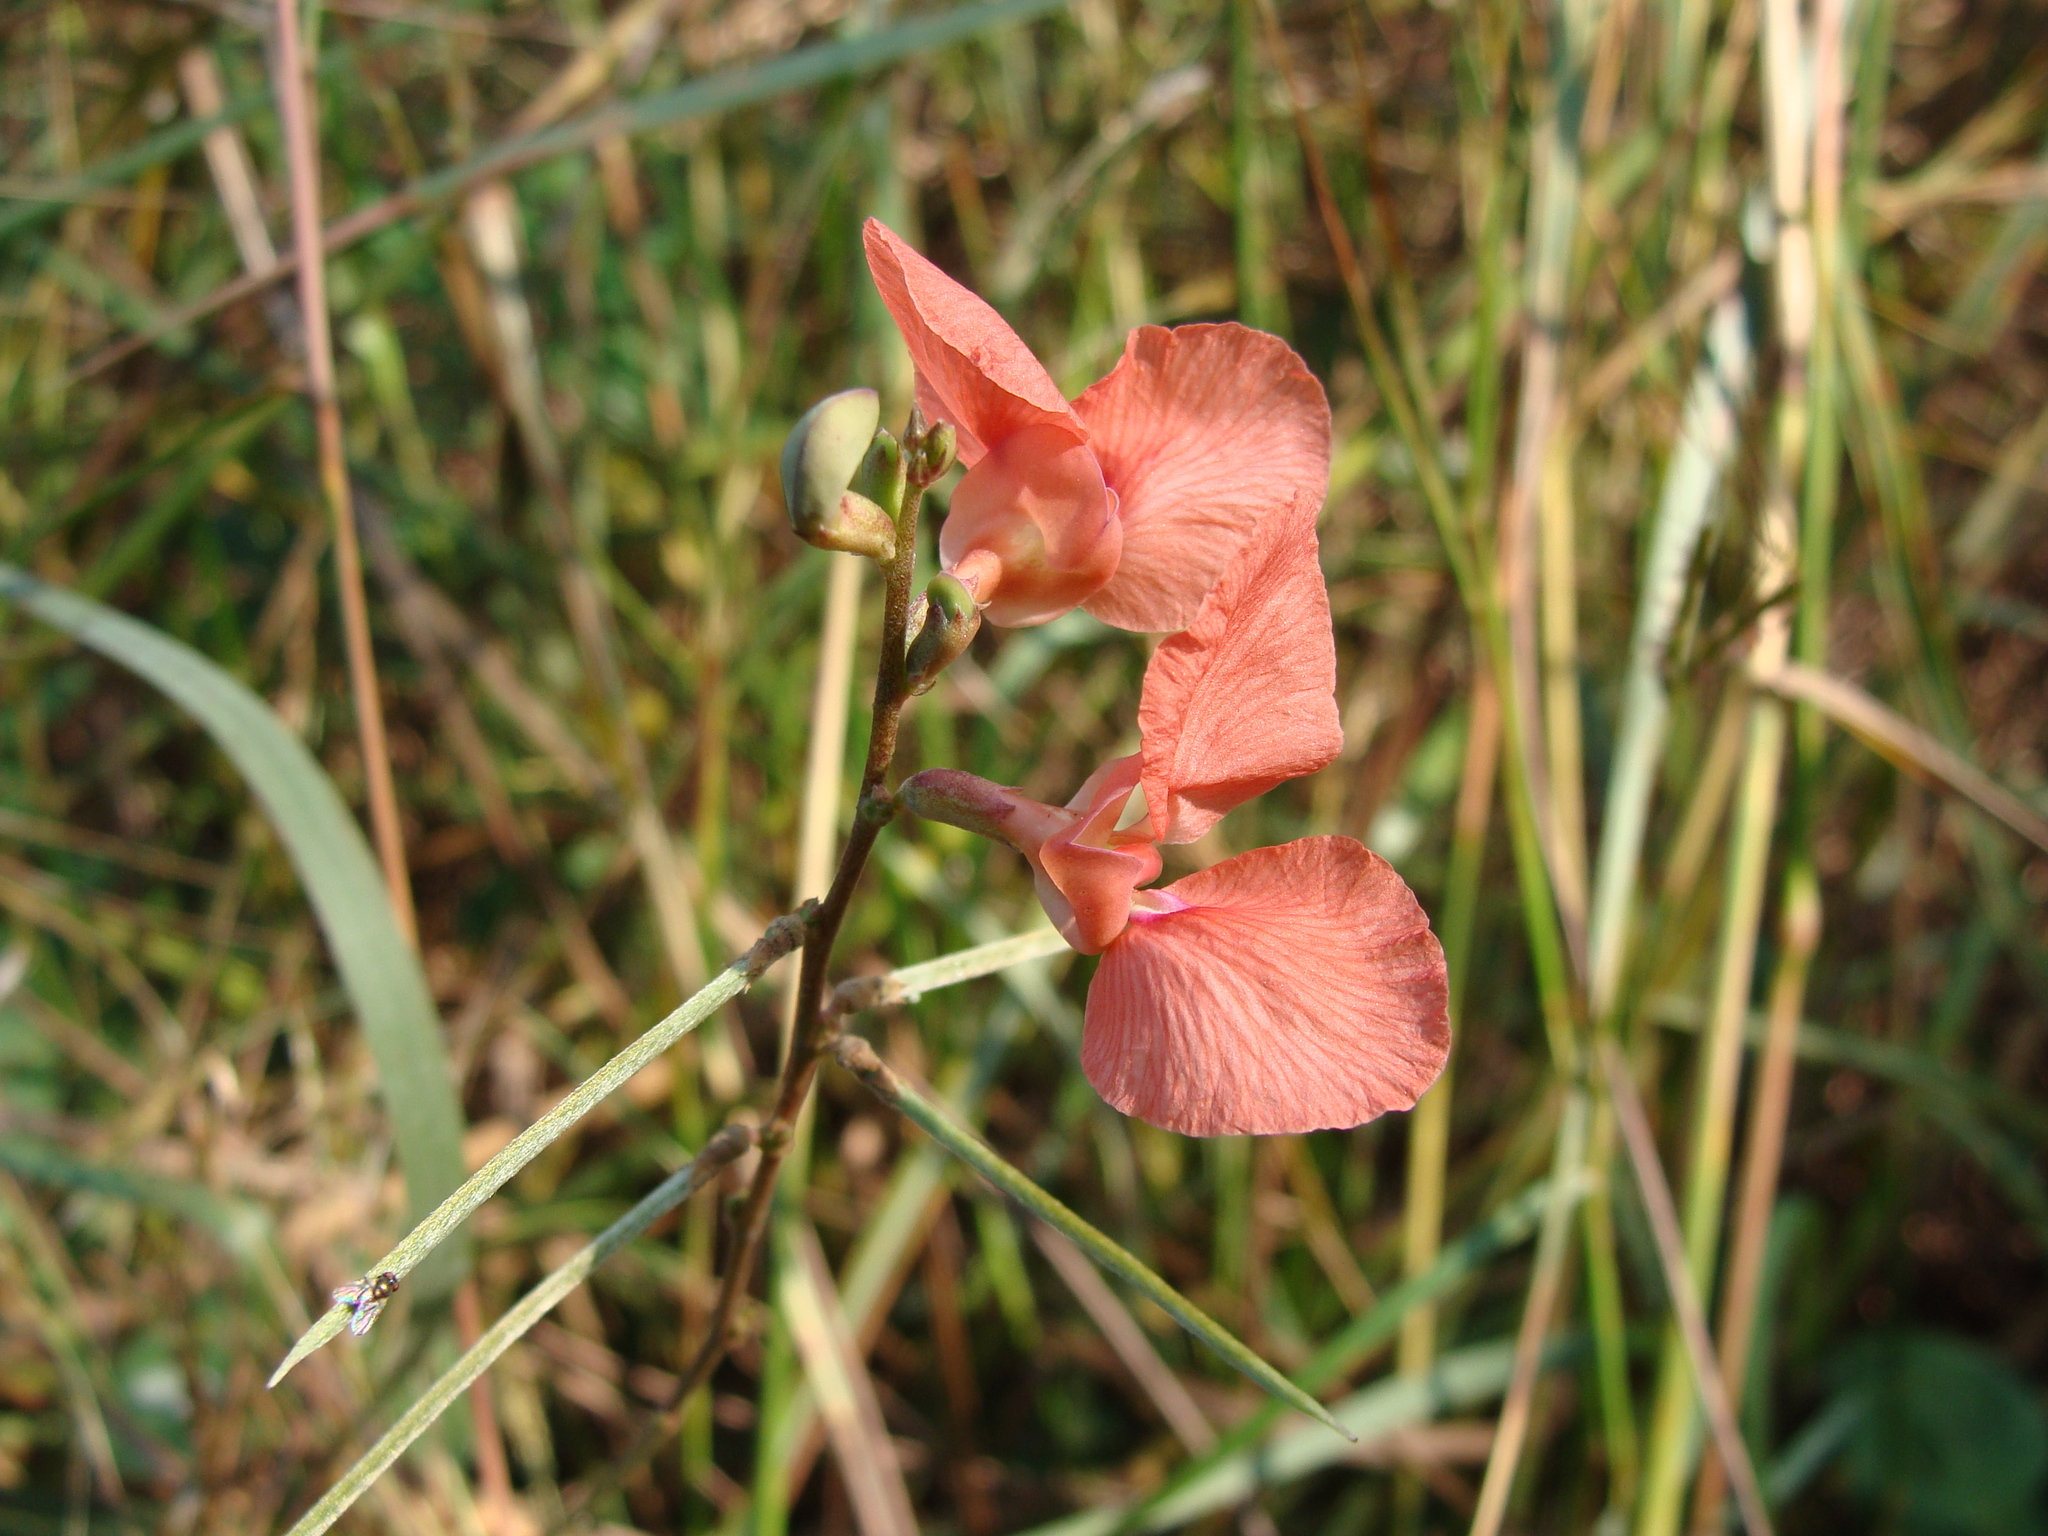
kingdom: Plantae
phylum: Tracheophyta
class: Magnoliopsida
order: Fabales
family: Fabaceae
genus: Macroptilium
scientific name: Macroptilium gracile
